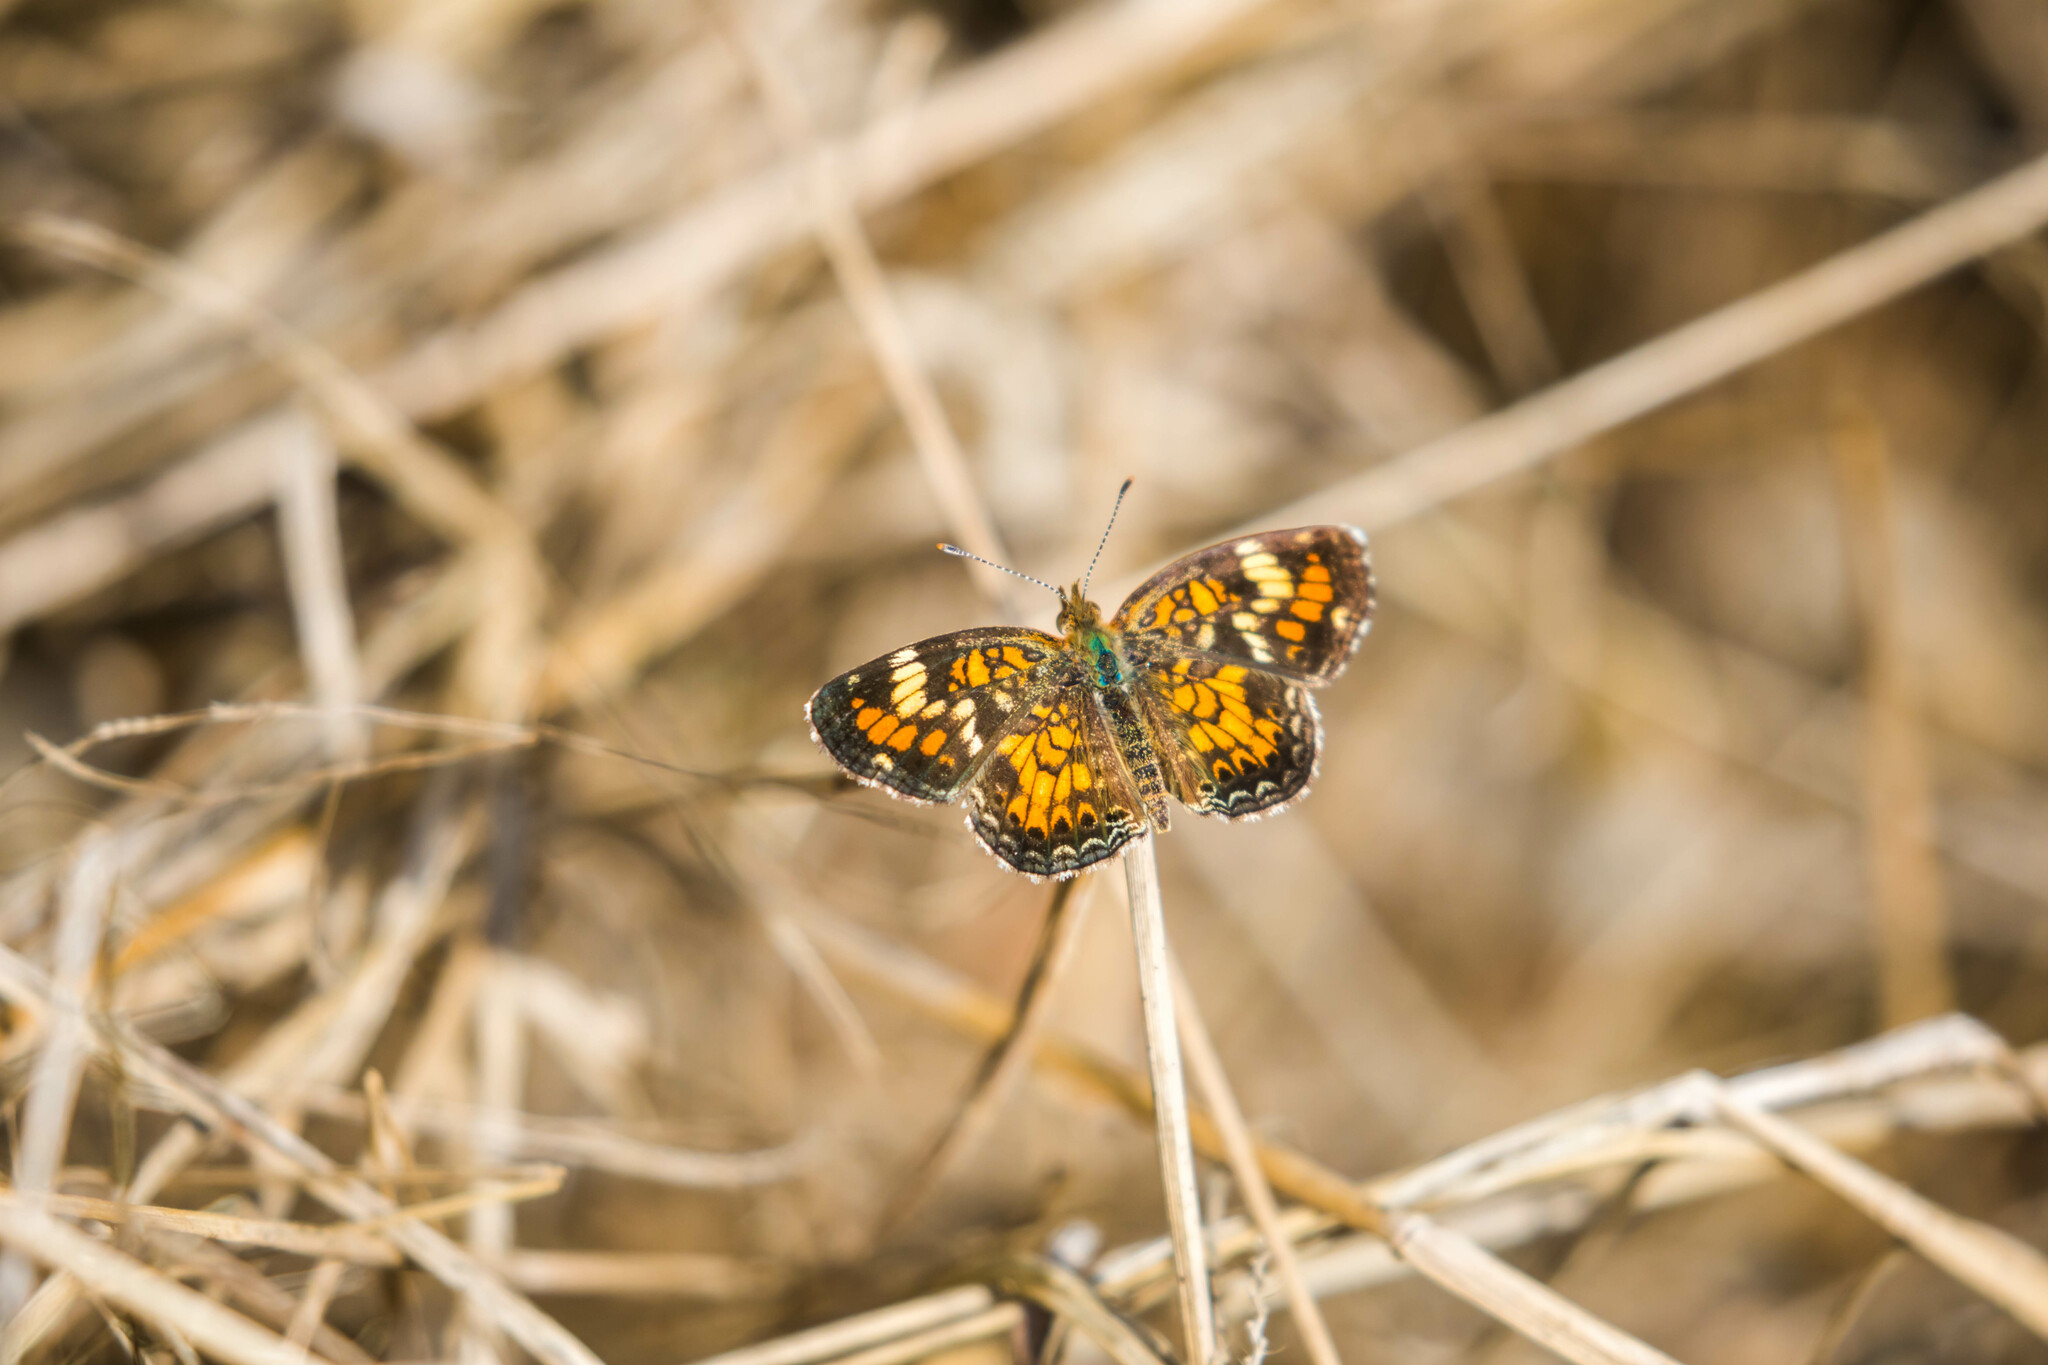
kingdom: Animalia
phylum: Arthropoda
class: Insecta
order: Lepidoptera
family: Nymphalidae
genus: Phyciodes
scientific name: Phyciodes phaon
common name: Phaon crescent
